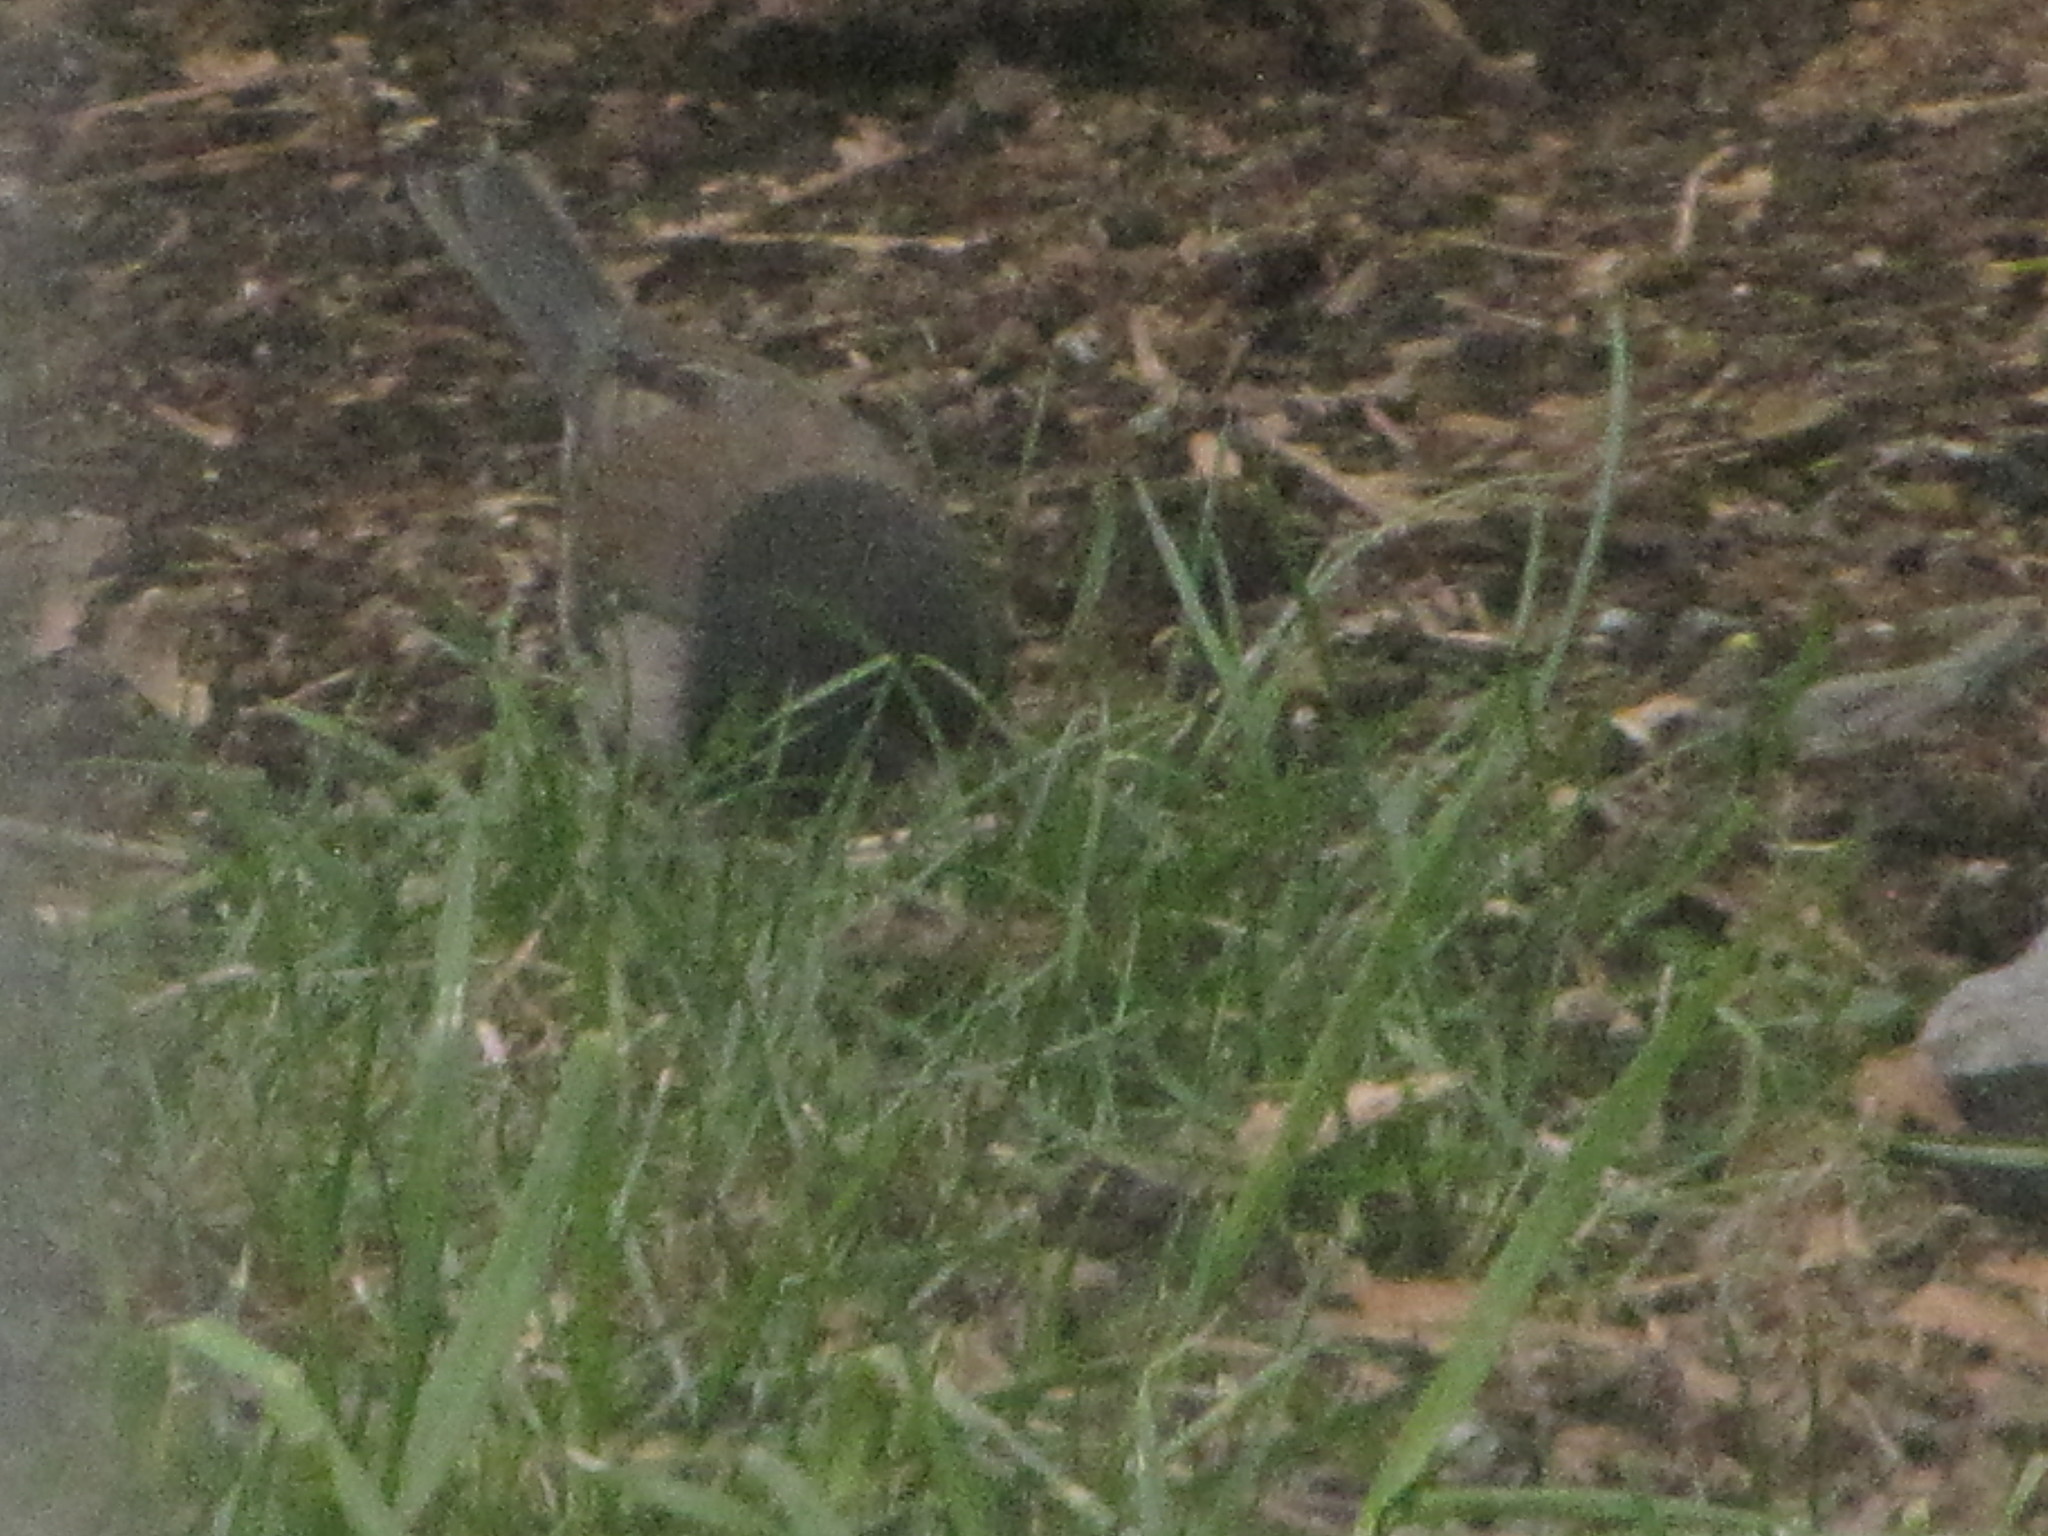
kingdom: Animalia
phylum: Chordata
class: Aves
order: Passeriformes
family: Passerellidae
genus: Junco
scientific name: Junco hyemalis
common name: Dark-eyed junco
